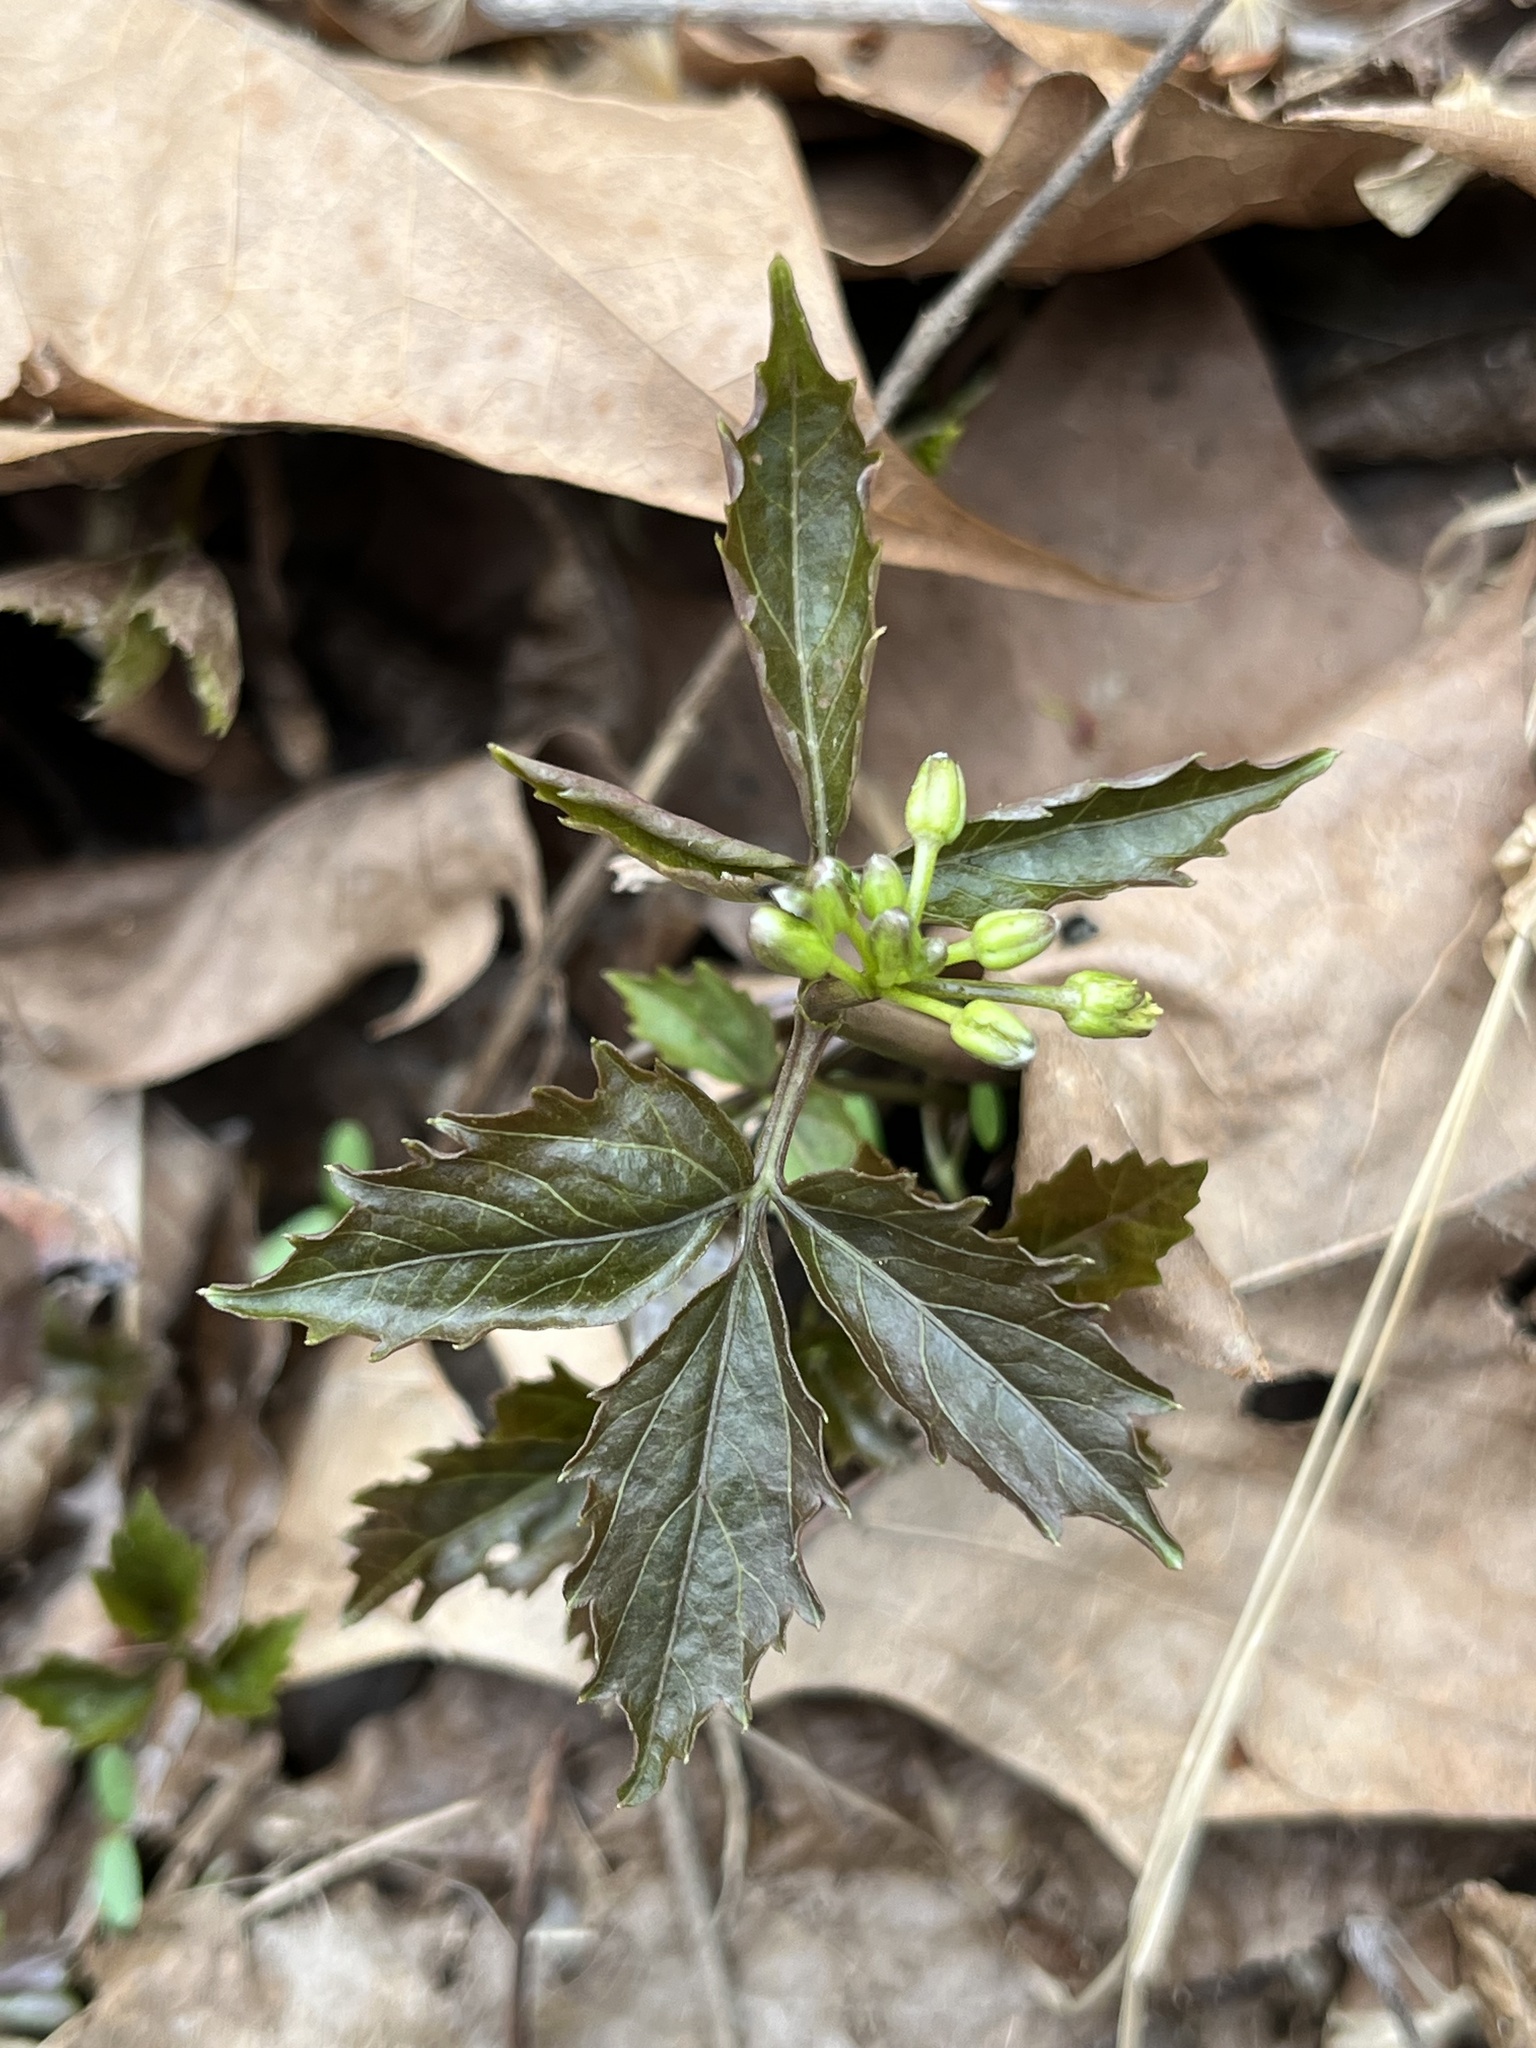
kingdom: Plantae
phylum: Tracheophyta
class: Magnoliopsida
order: Brassicales
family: Brassicaceae
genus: Cardamine
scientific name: Cardamine diphylla
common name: Broad-leaved toothwort
